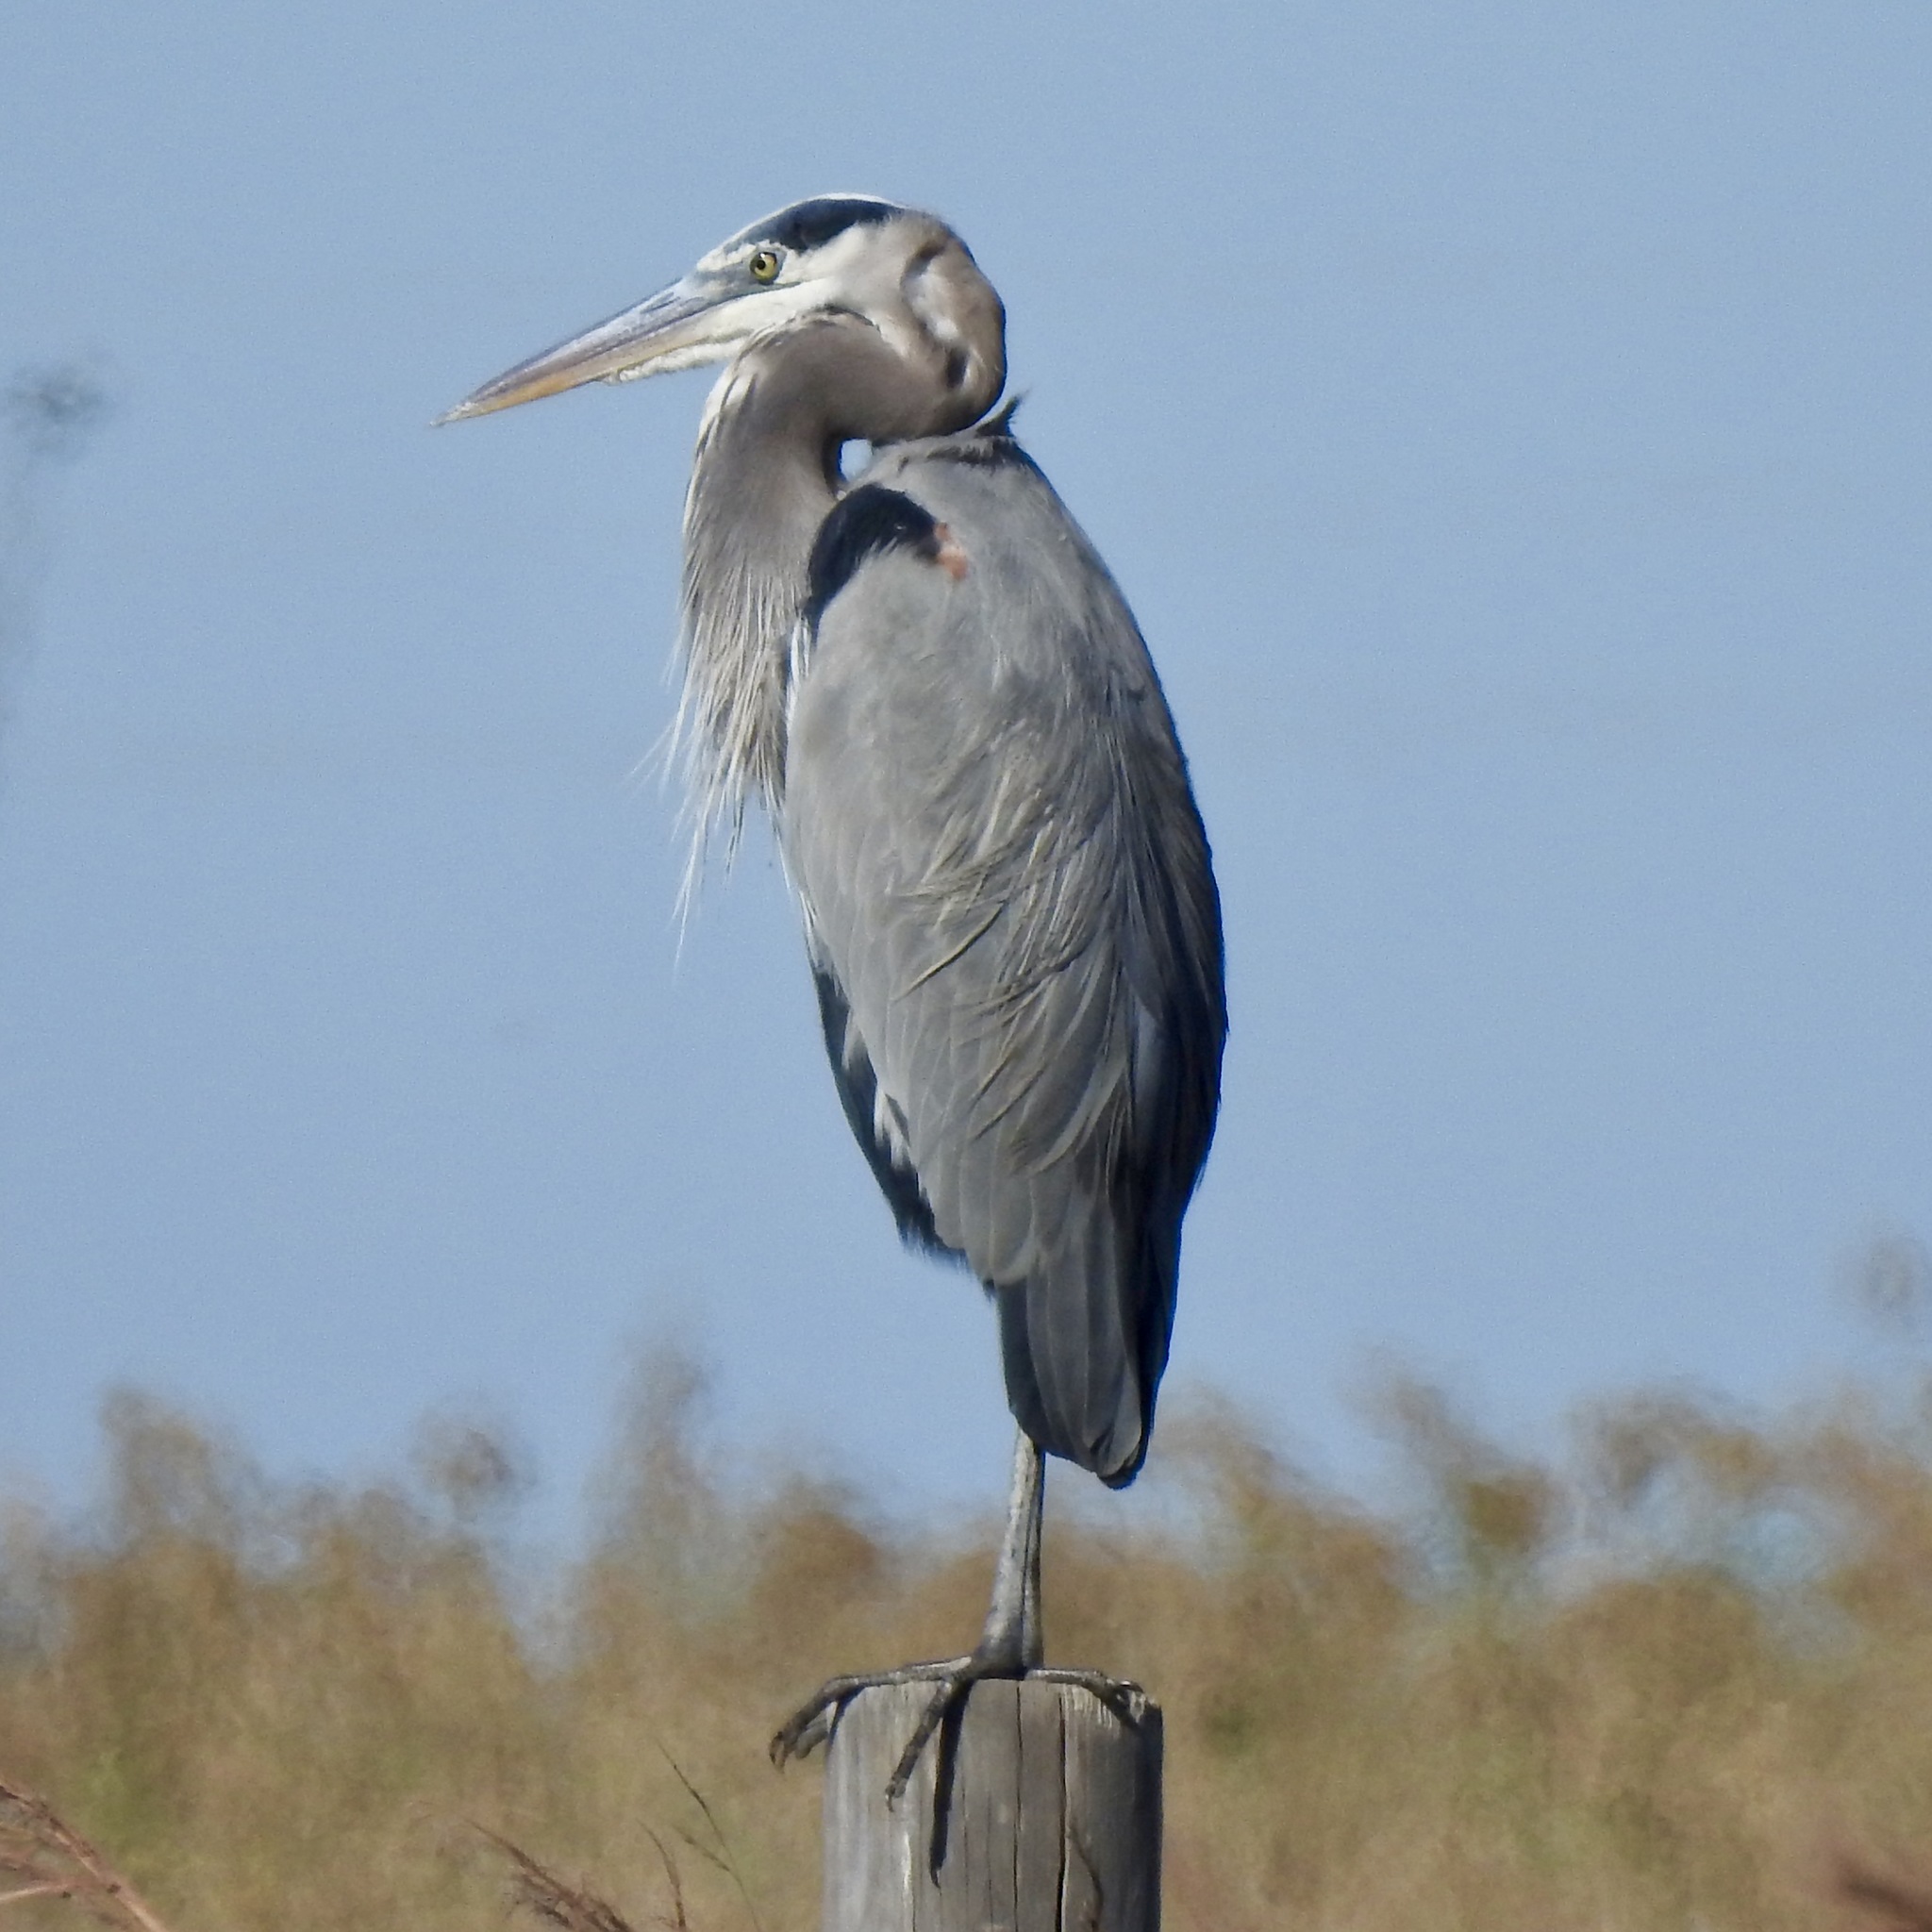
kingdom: Animalia
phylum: Chordata
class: Aves
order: Pelecaniformes
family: Ardeidae
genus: Ardea
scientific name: Ardea herodias
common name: Great blue heron
